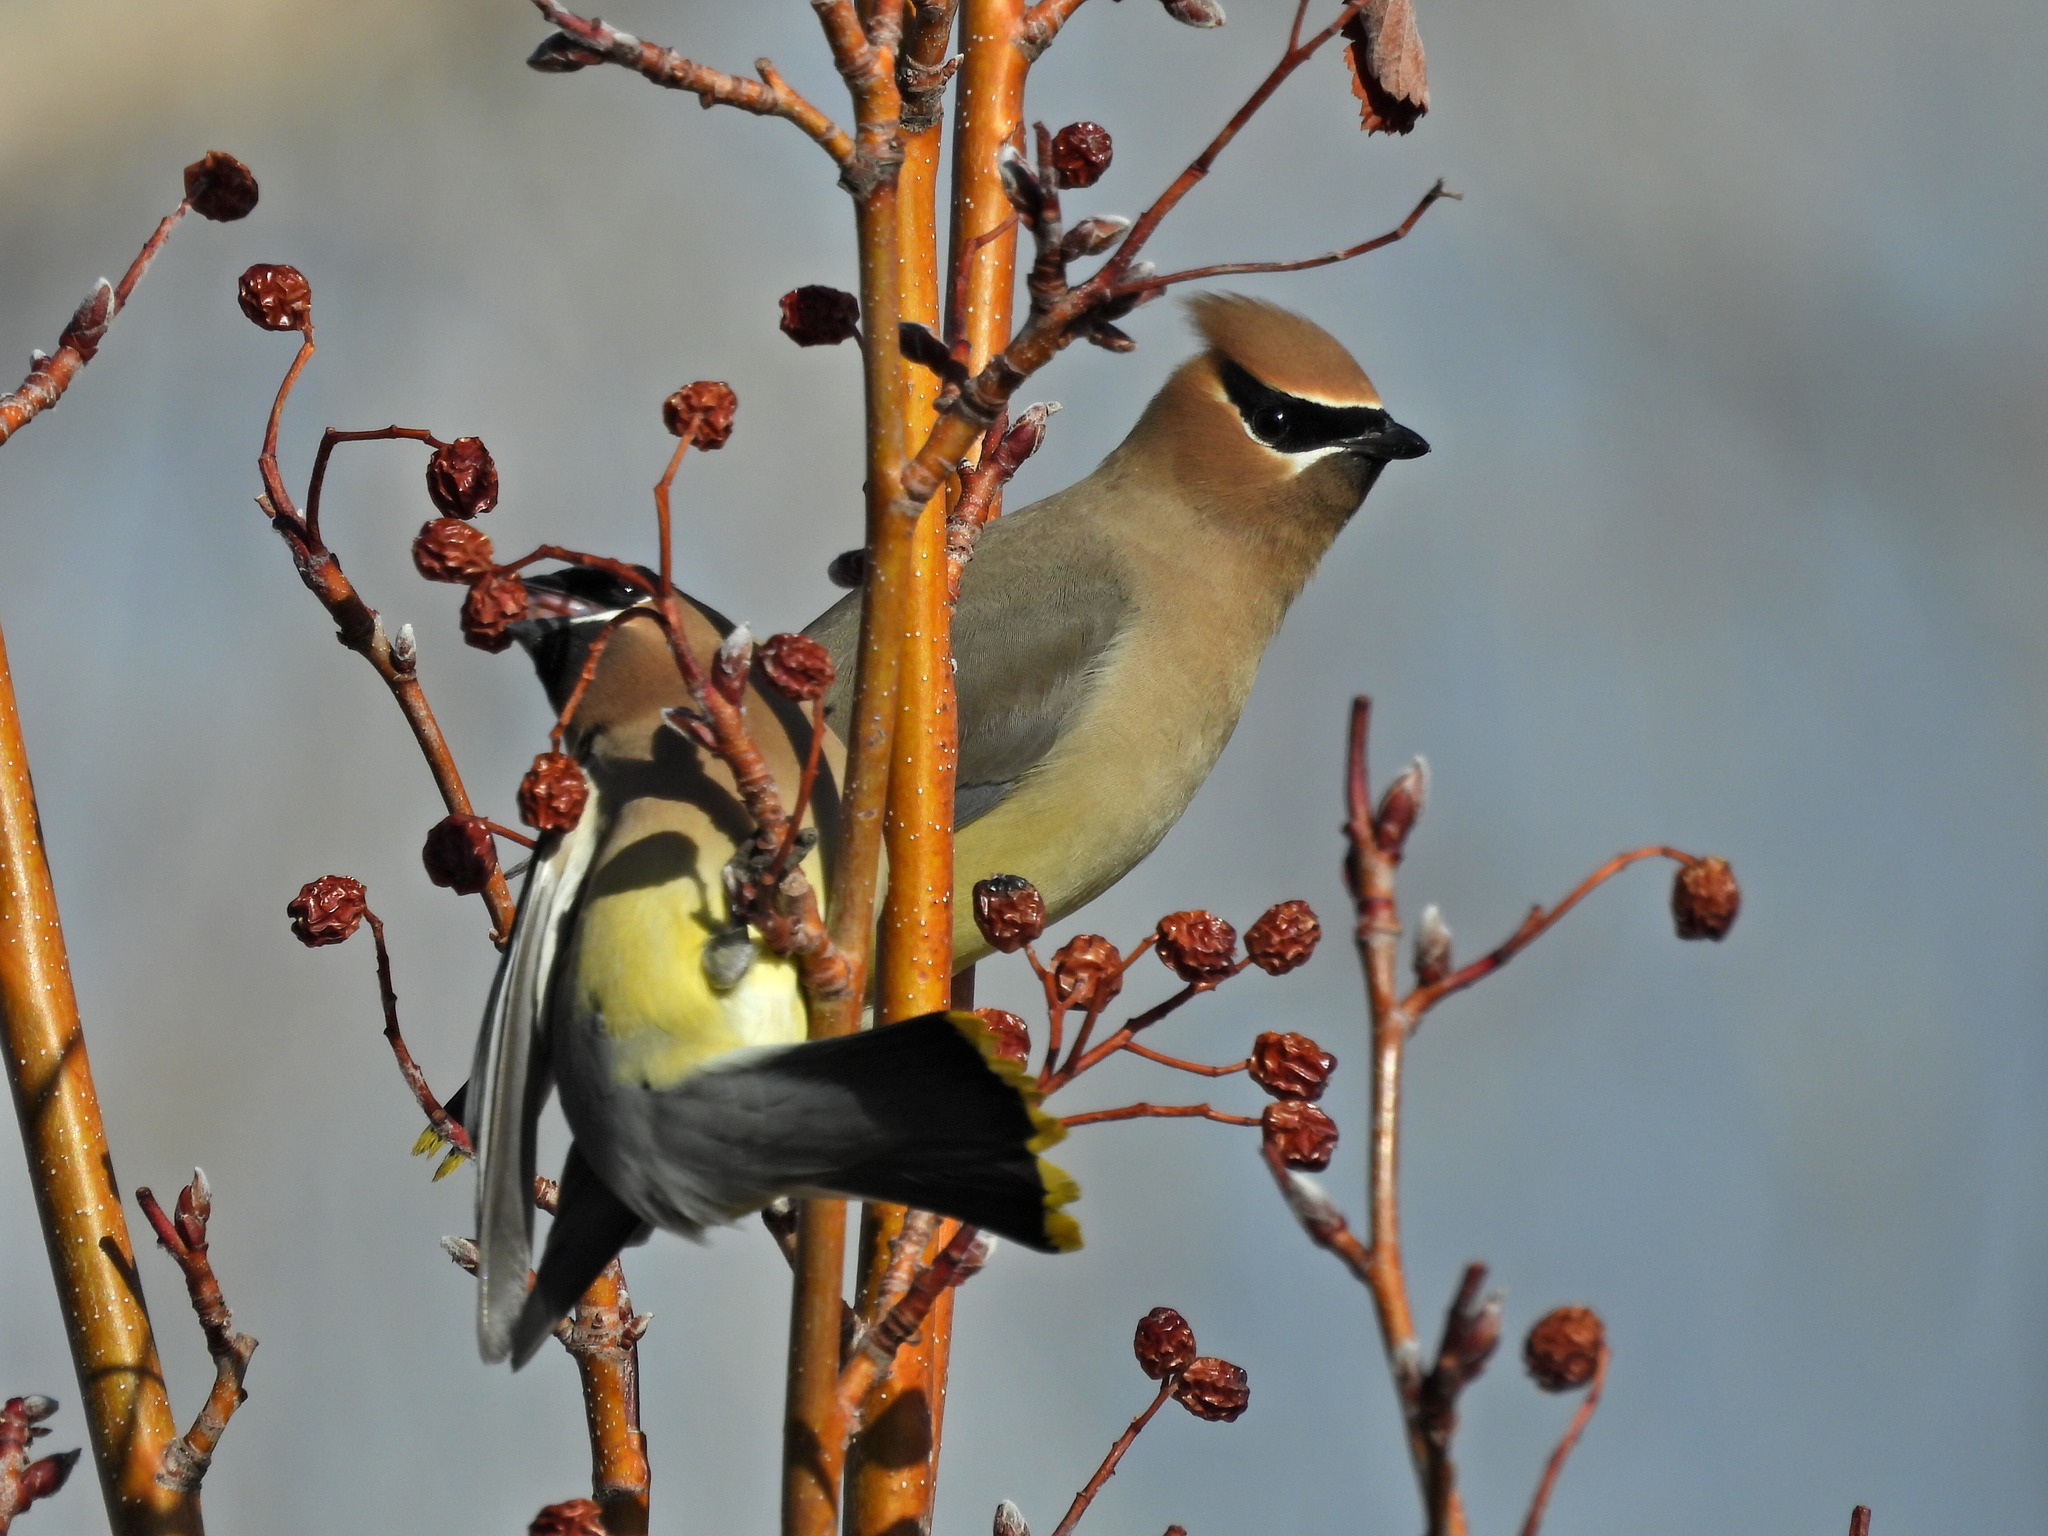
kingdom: Animalia
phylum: Chordata
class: Aves
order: Passeriformes
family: Bombycillidae
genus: Bombycilla
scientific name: Bombycilla cedrorum
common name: Cedar waxwing
